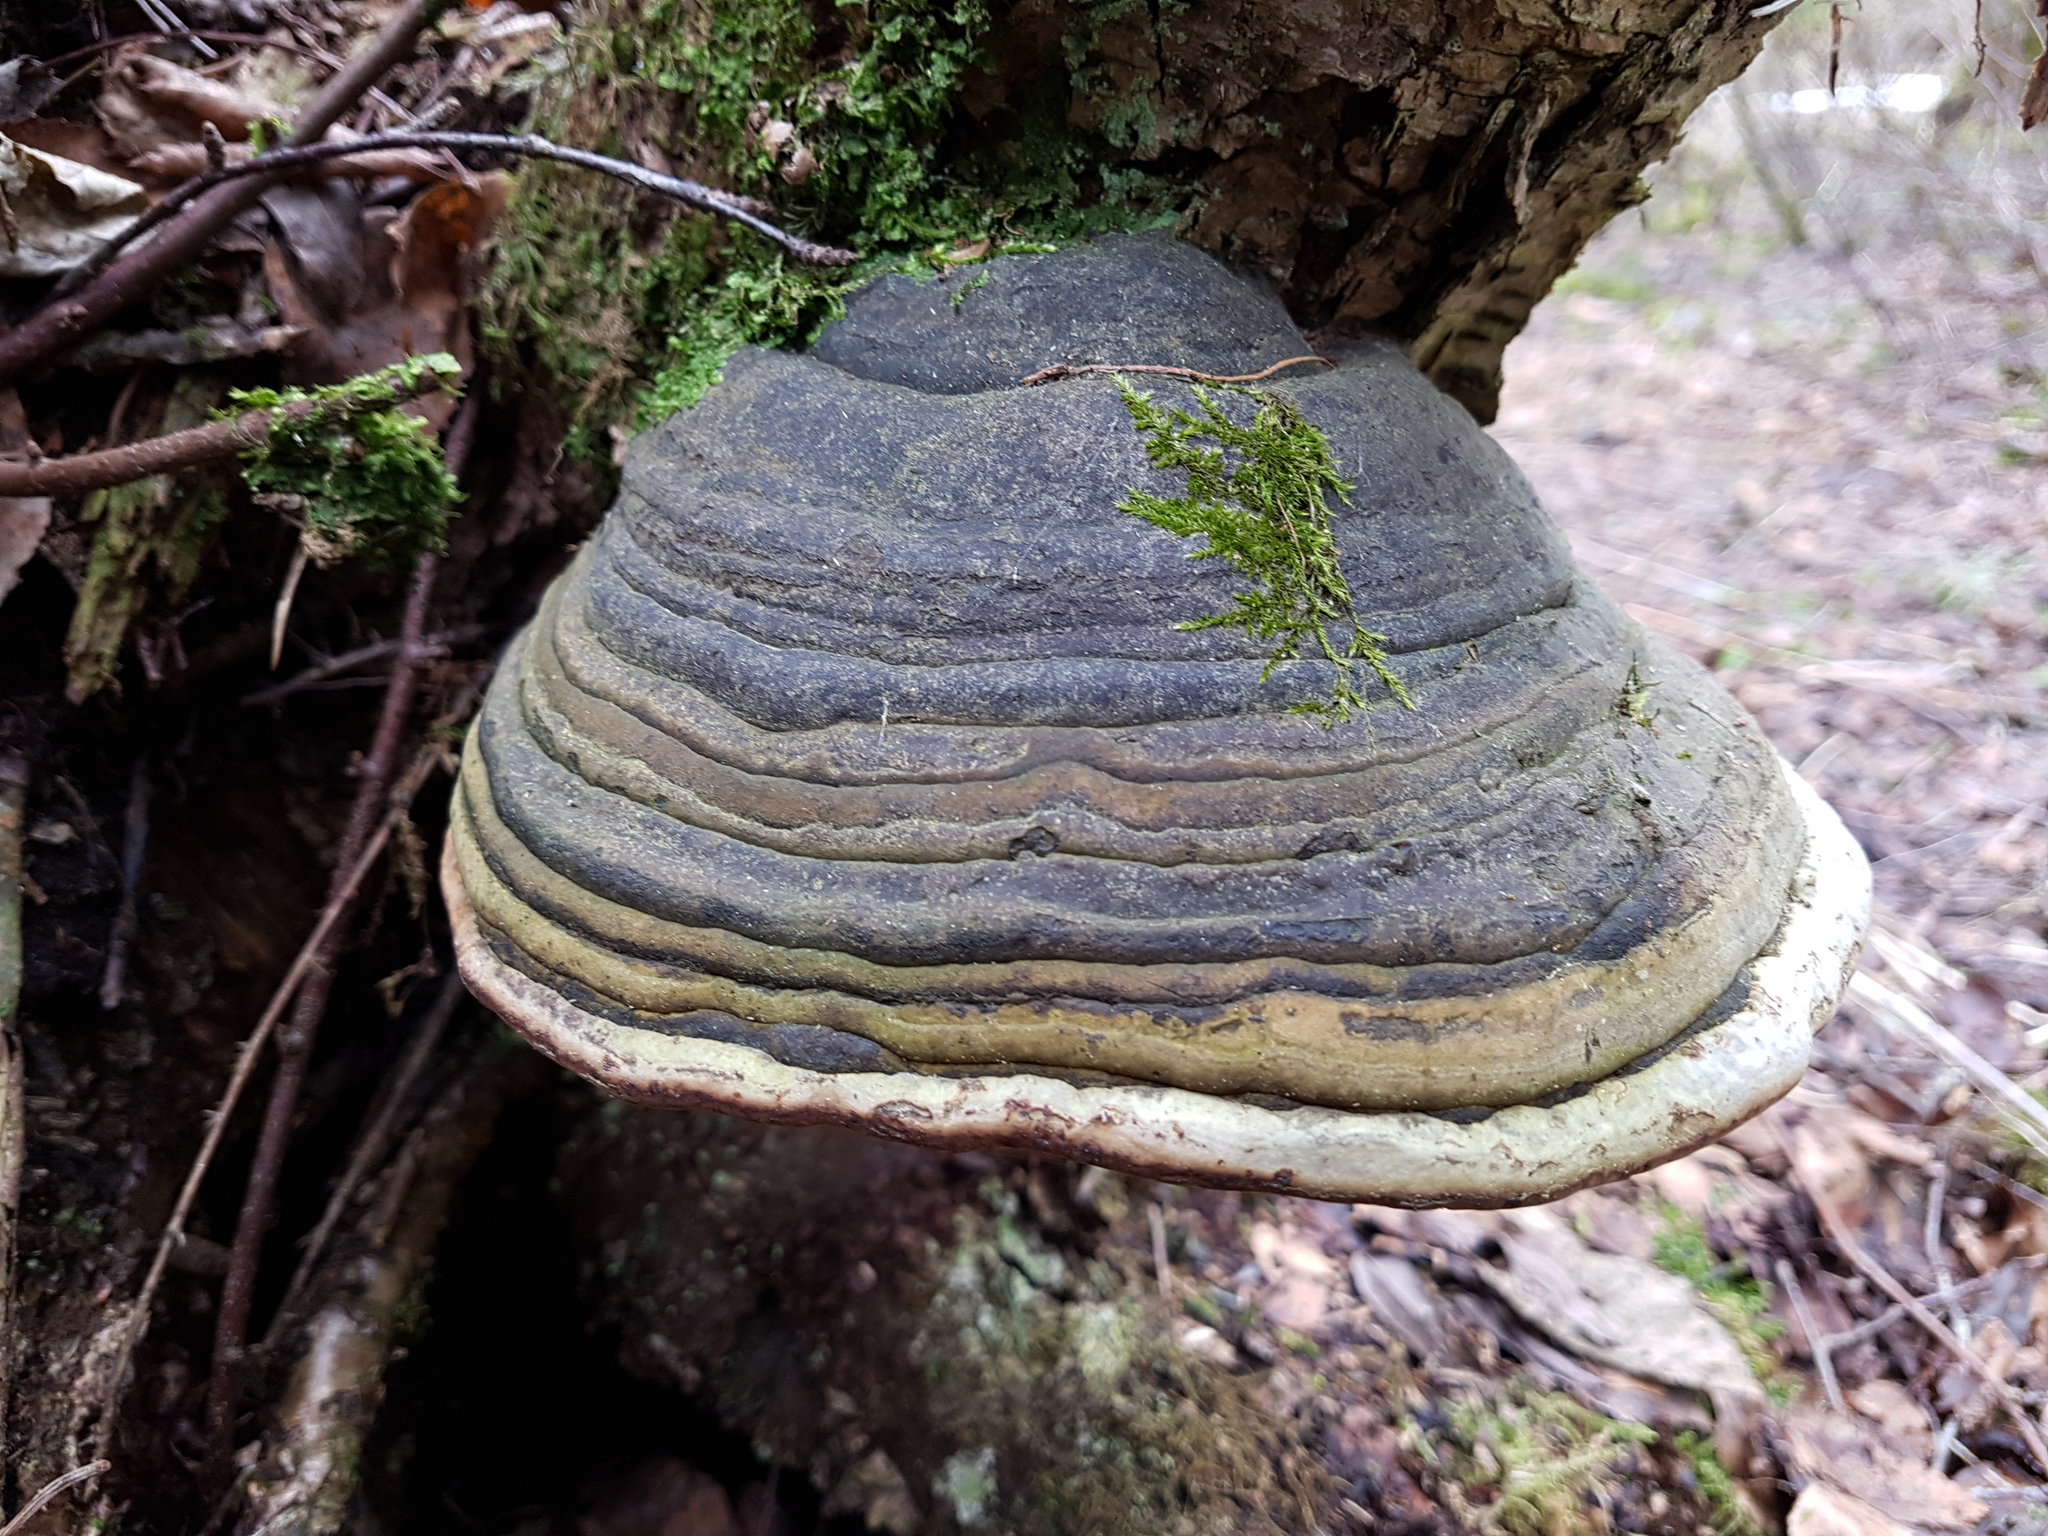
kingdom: Fungi
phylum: Basidiomycota
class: Agaricomycetes
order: Polyporales
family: Polyporaceae
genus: Fomes
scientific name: Fomes fomentarius
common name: Hoof fungus
